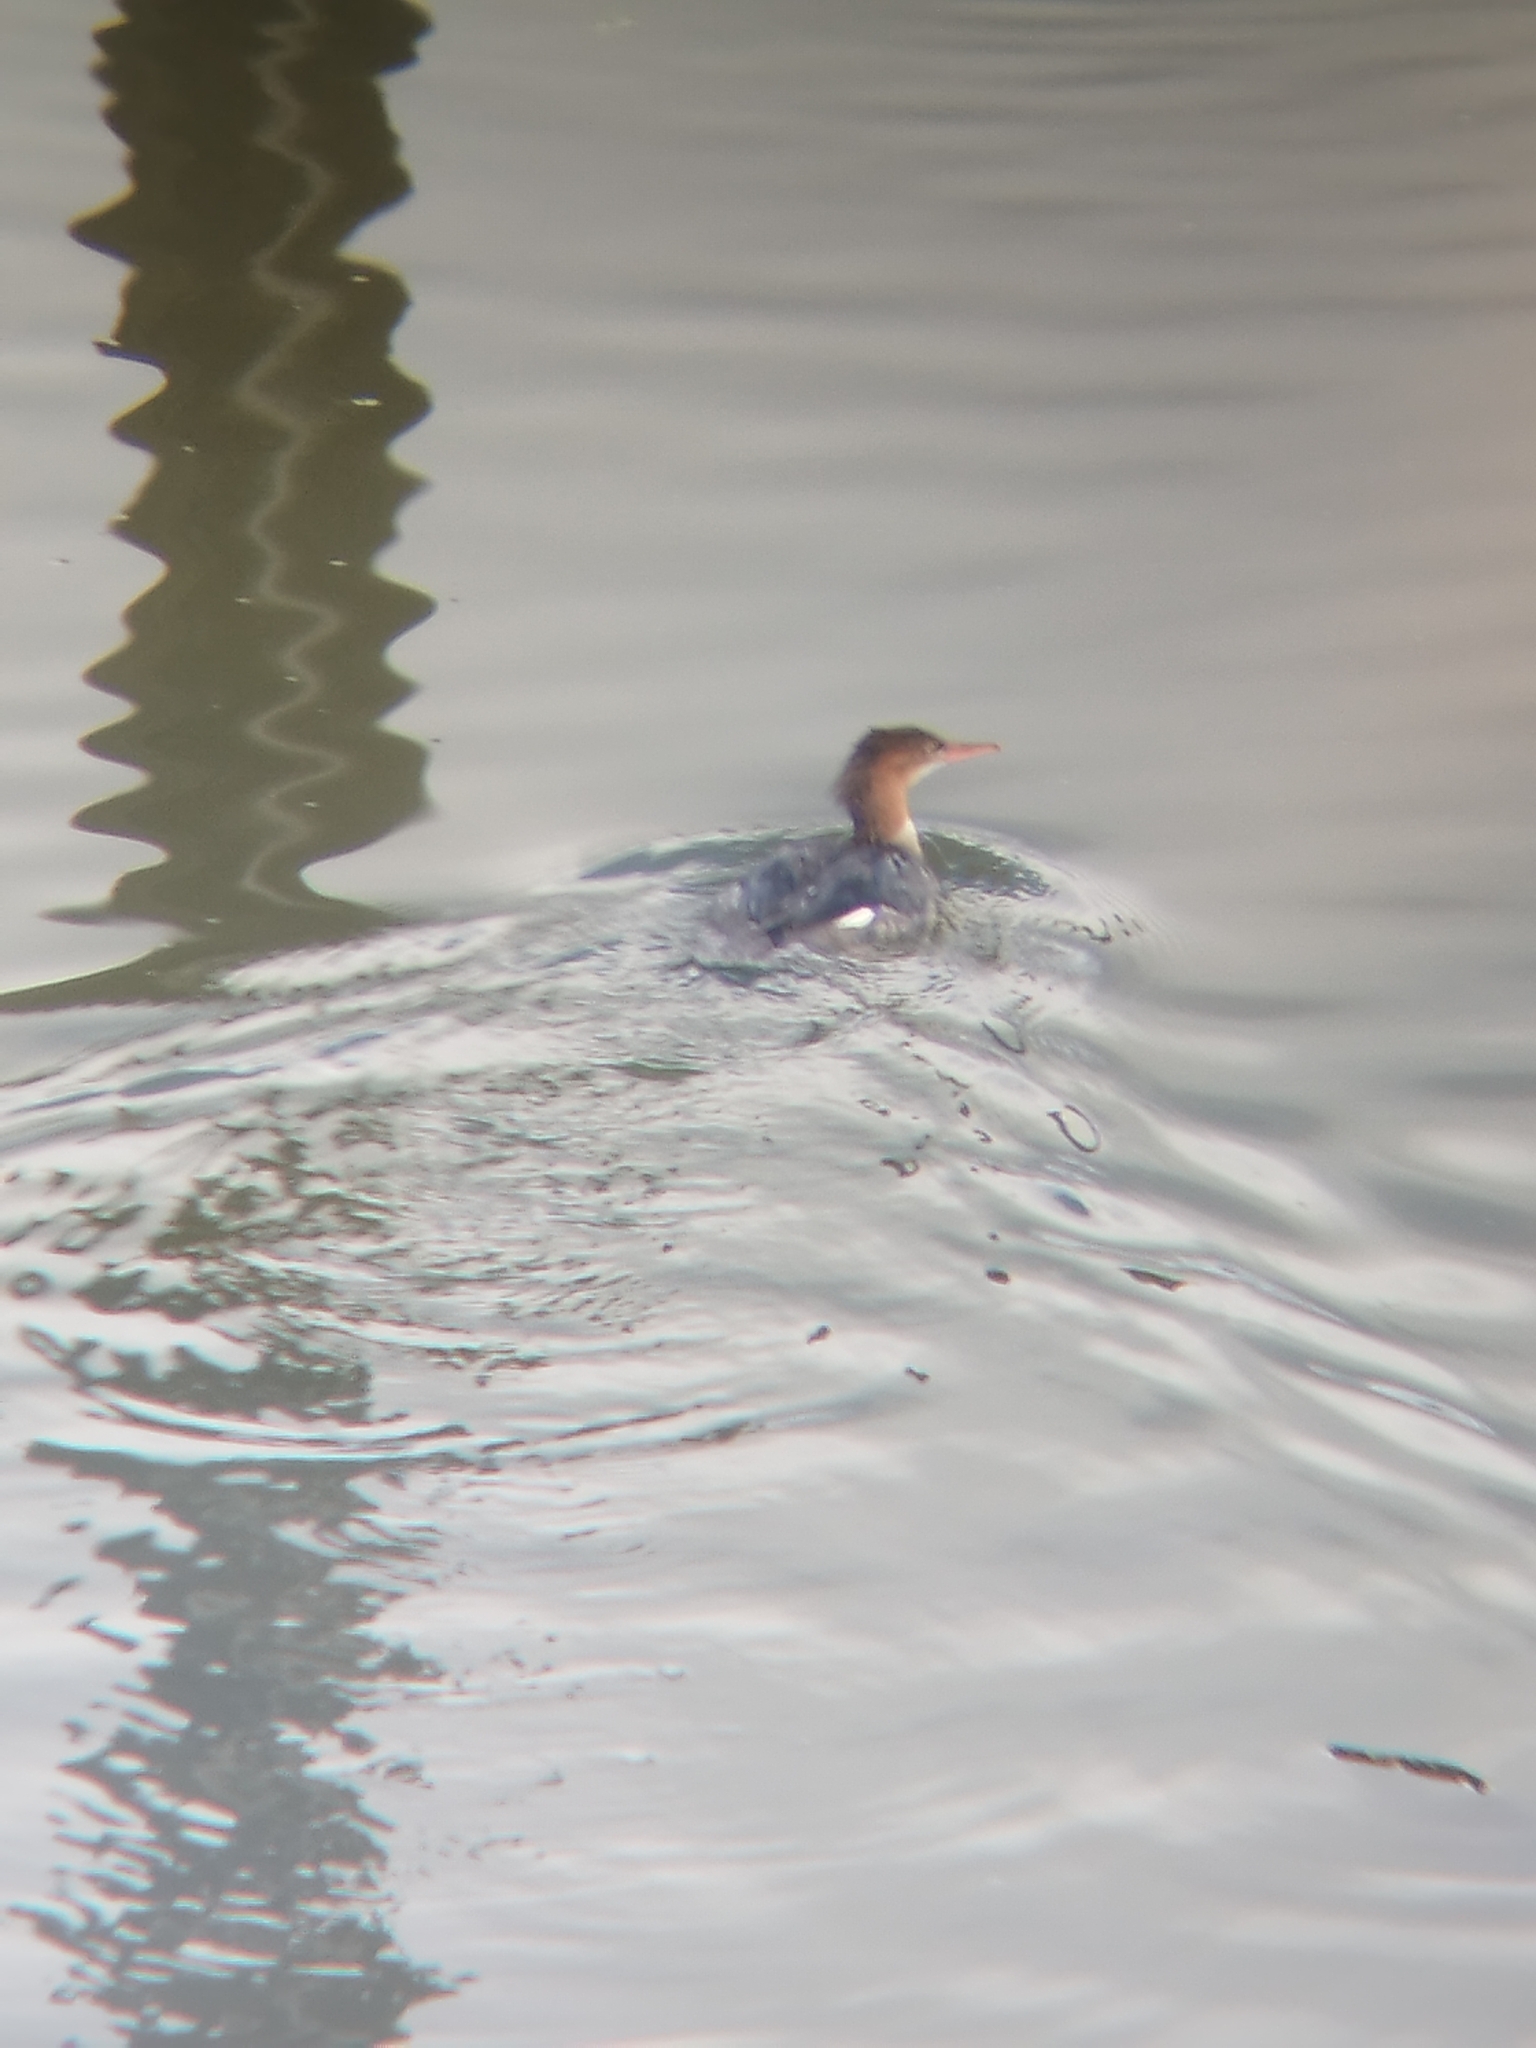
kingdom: Animalia
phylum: Chordata
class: Aves
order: Anseriformes
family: Anatidae
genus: Mergus
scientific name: Mergus merganser
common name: Common merganser
